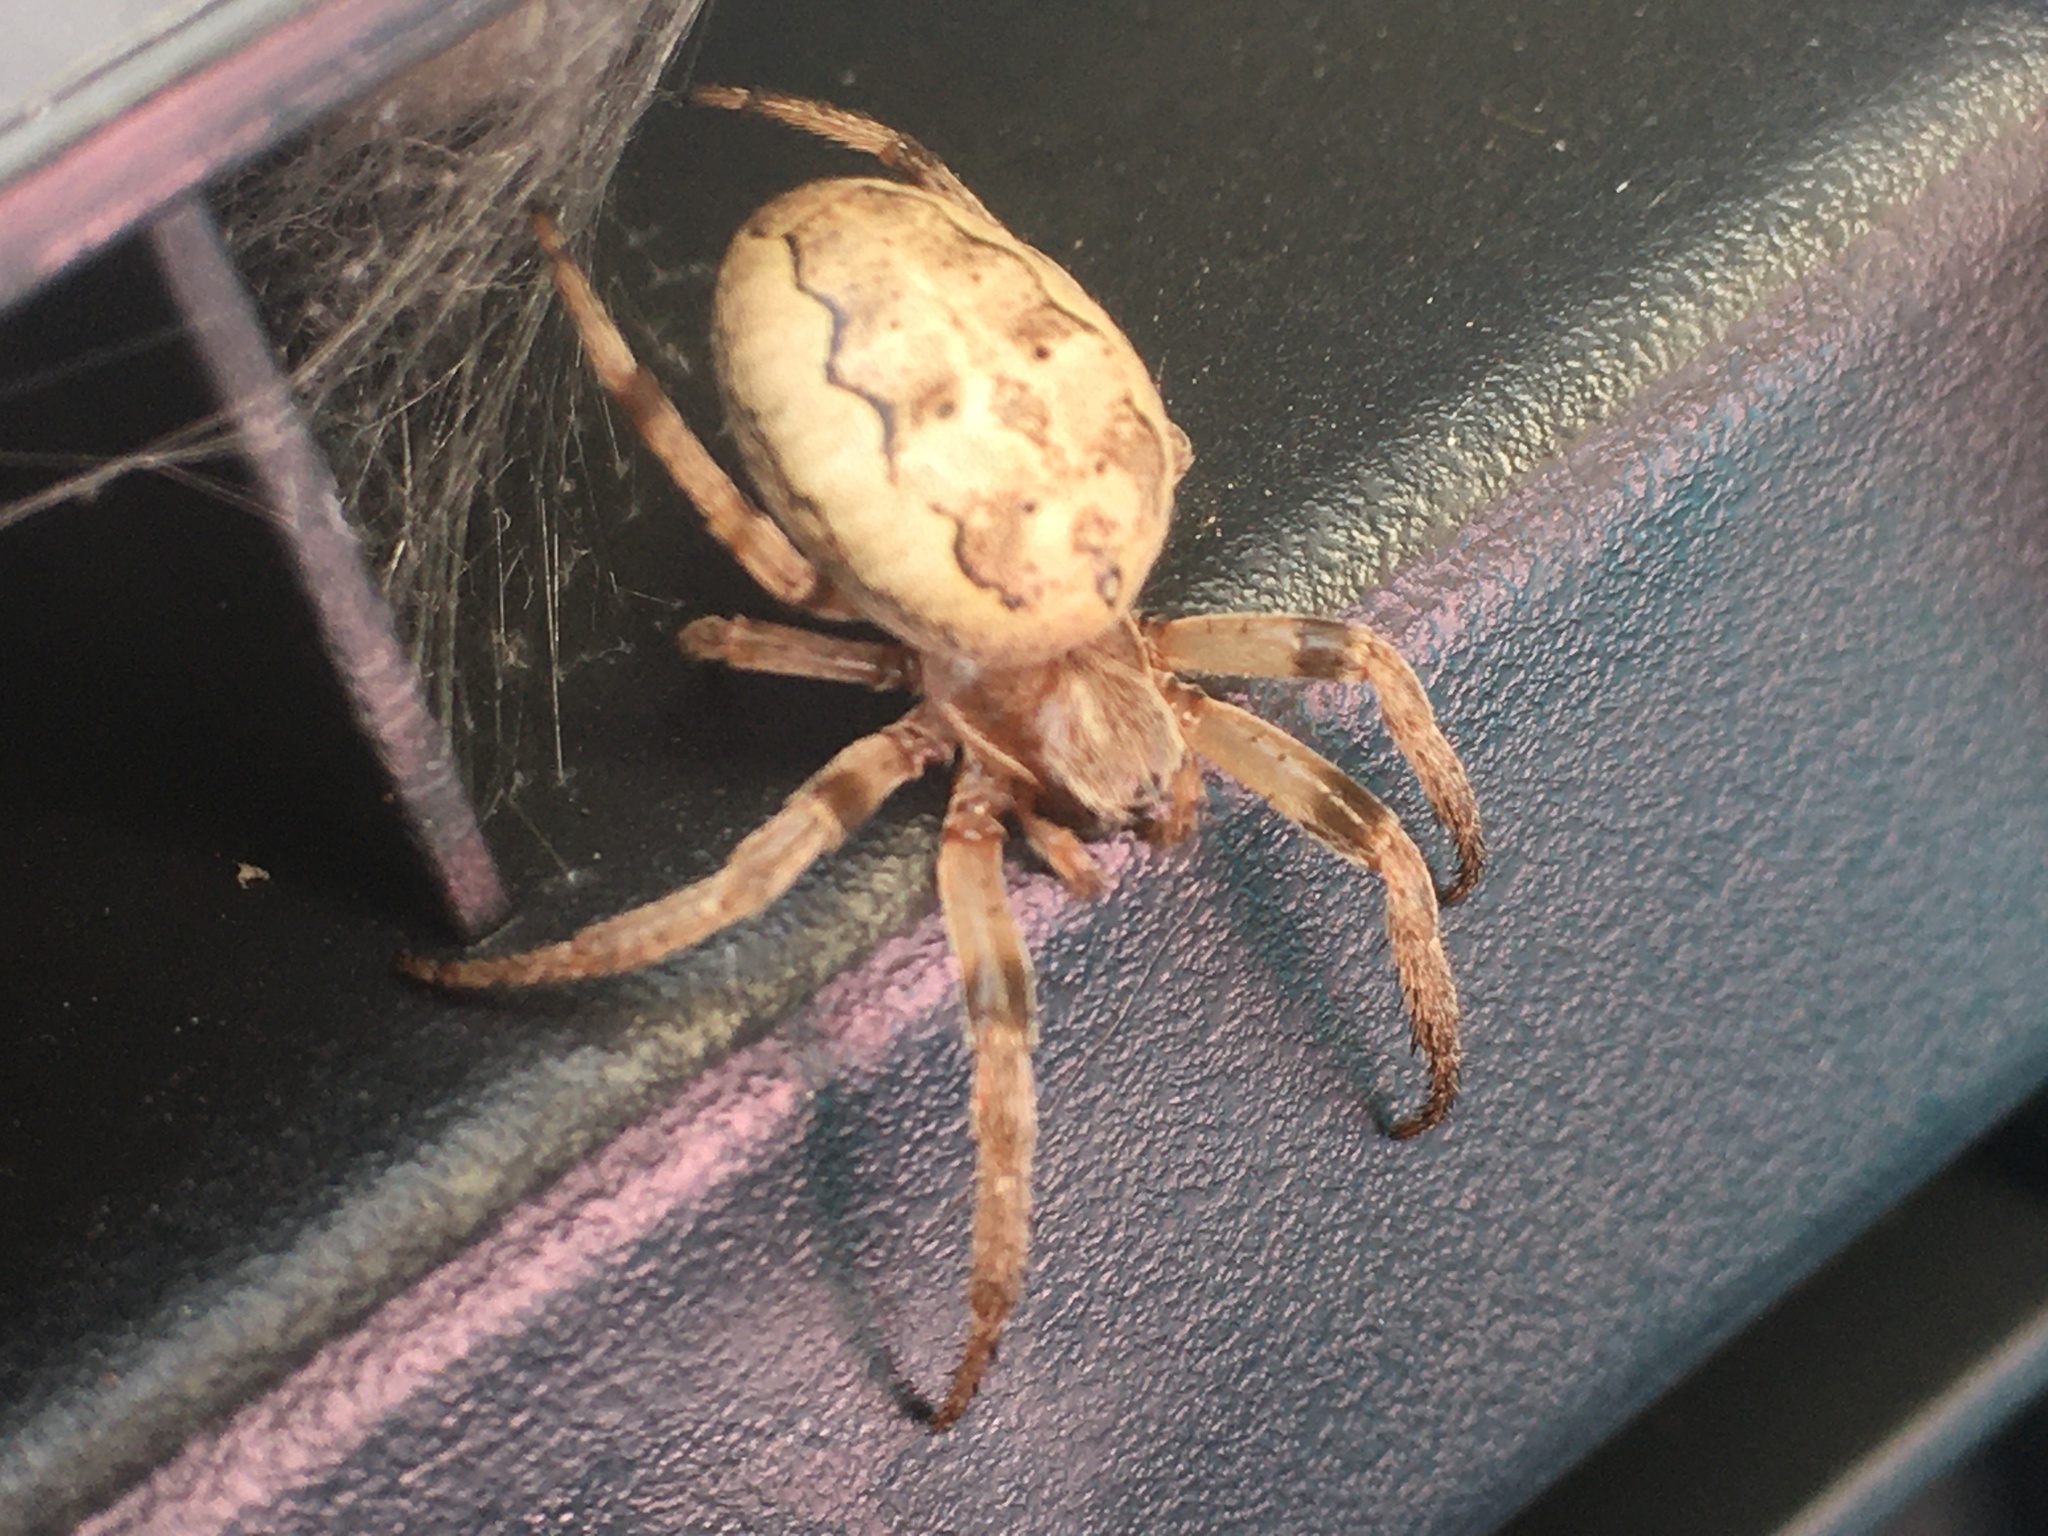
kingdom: Animalia
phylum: Arthropoda
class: Arachnida
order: Araneae
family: Araneidae
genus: Larinioides
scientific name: Larinioides cornutus
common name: Furrow orbweaver
